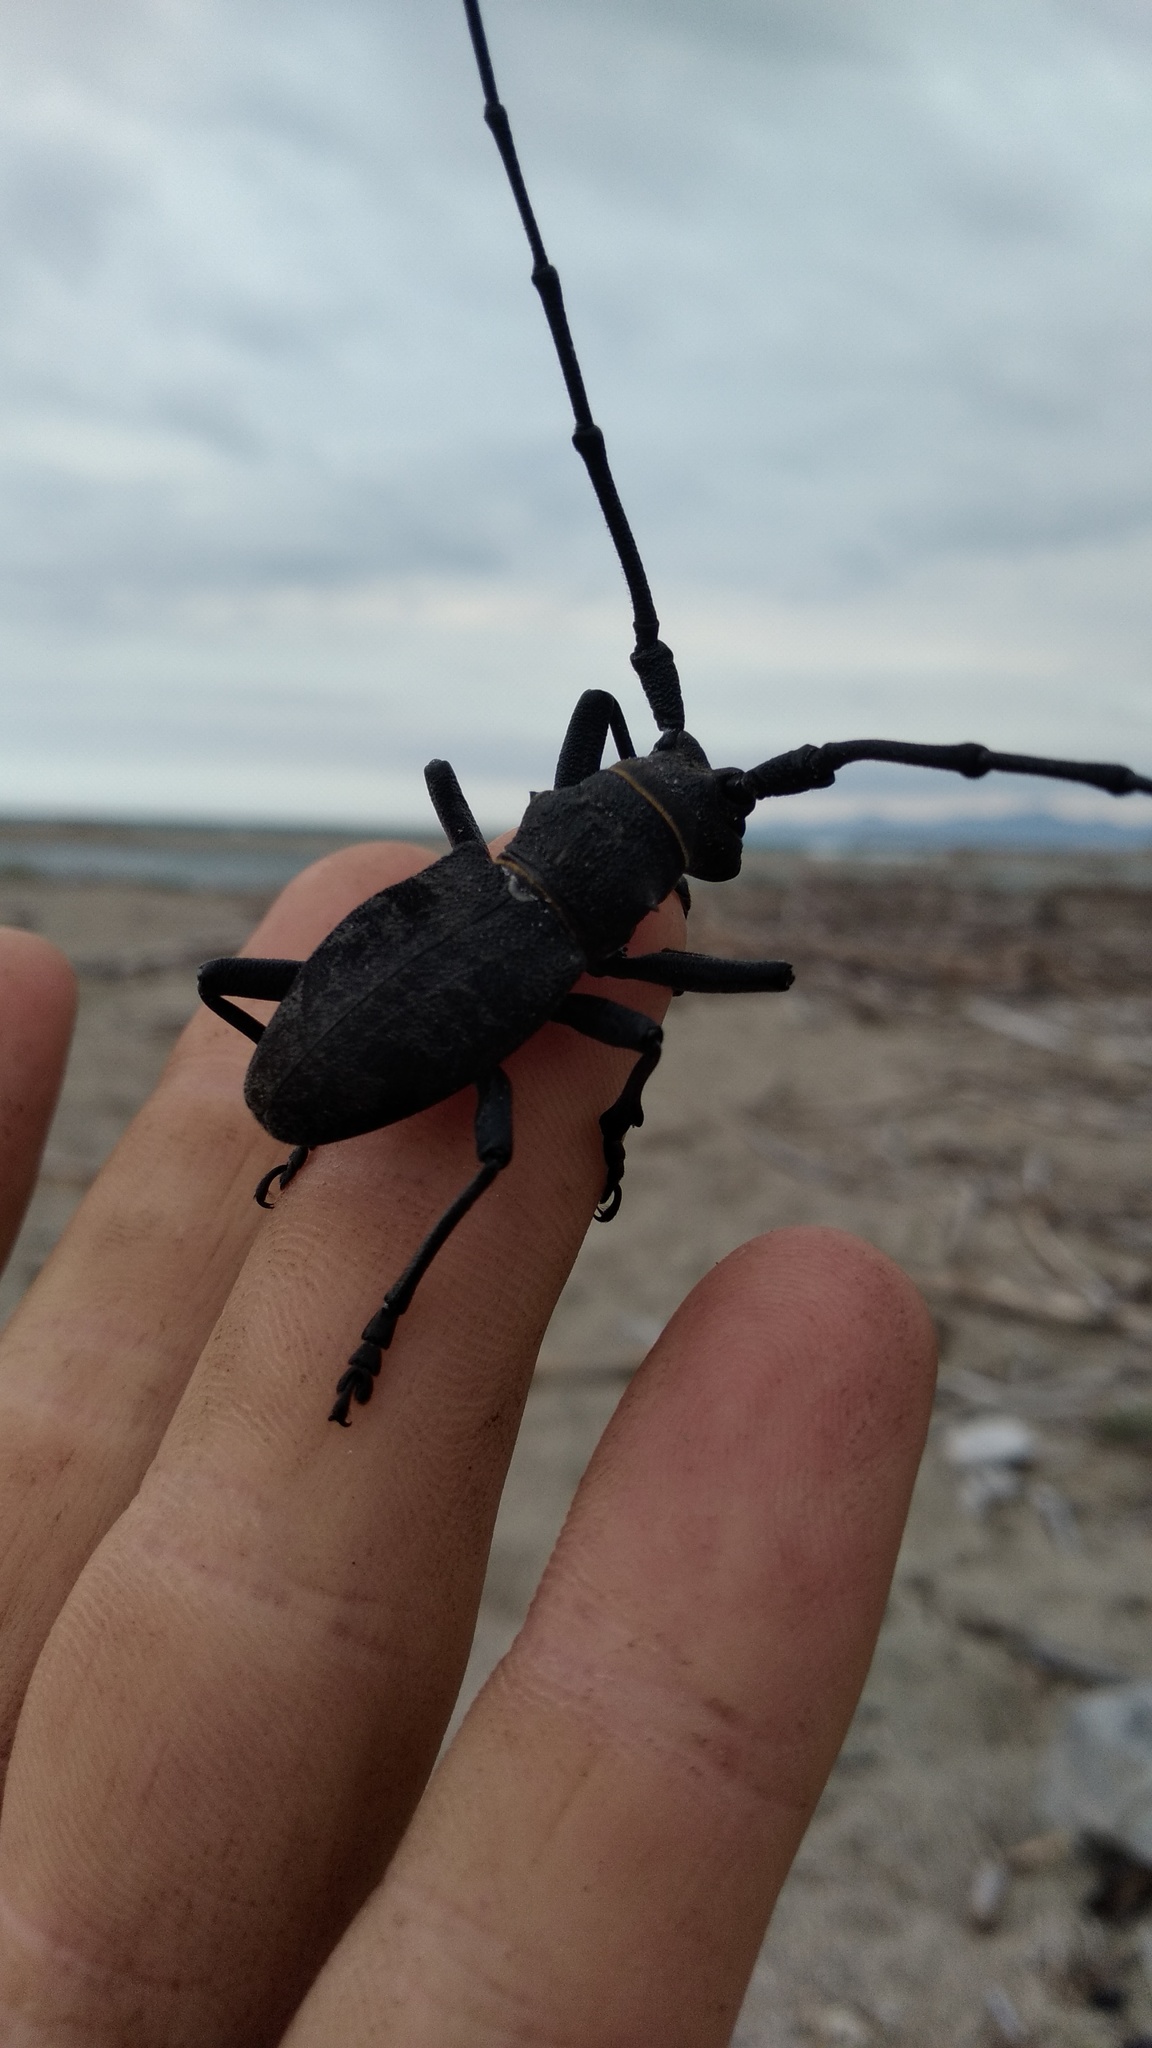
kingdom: Animalia
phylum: Arthropoda
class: Insecta
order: Coleoptera
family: Cerambycidae
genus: Morimus
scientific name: Morimus asper
